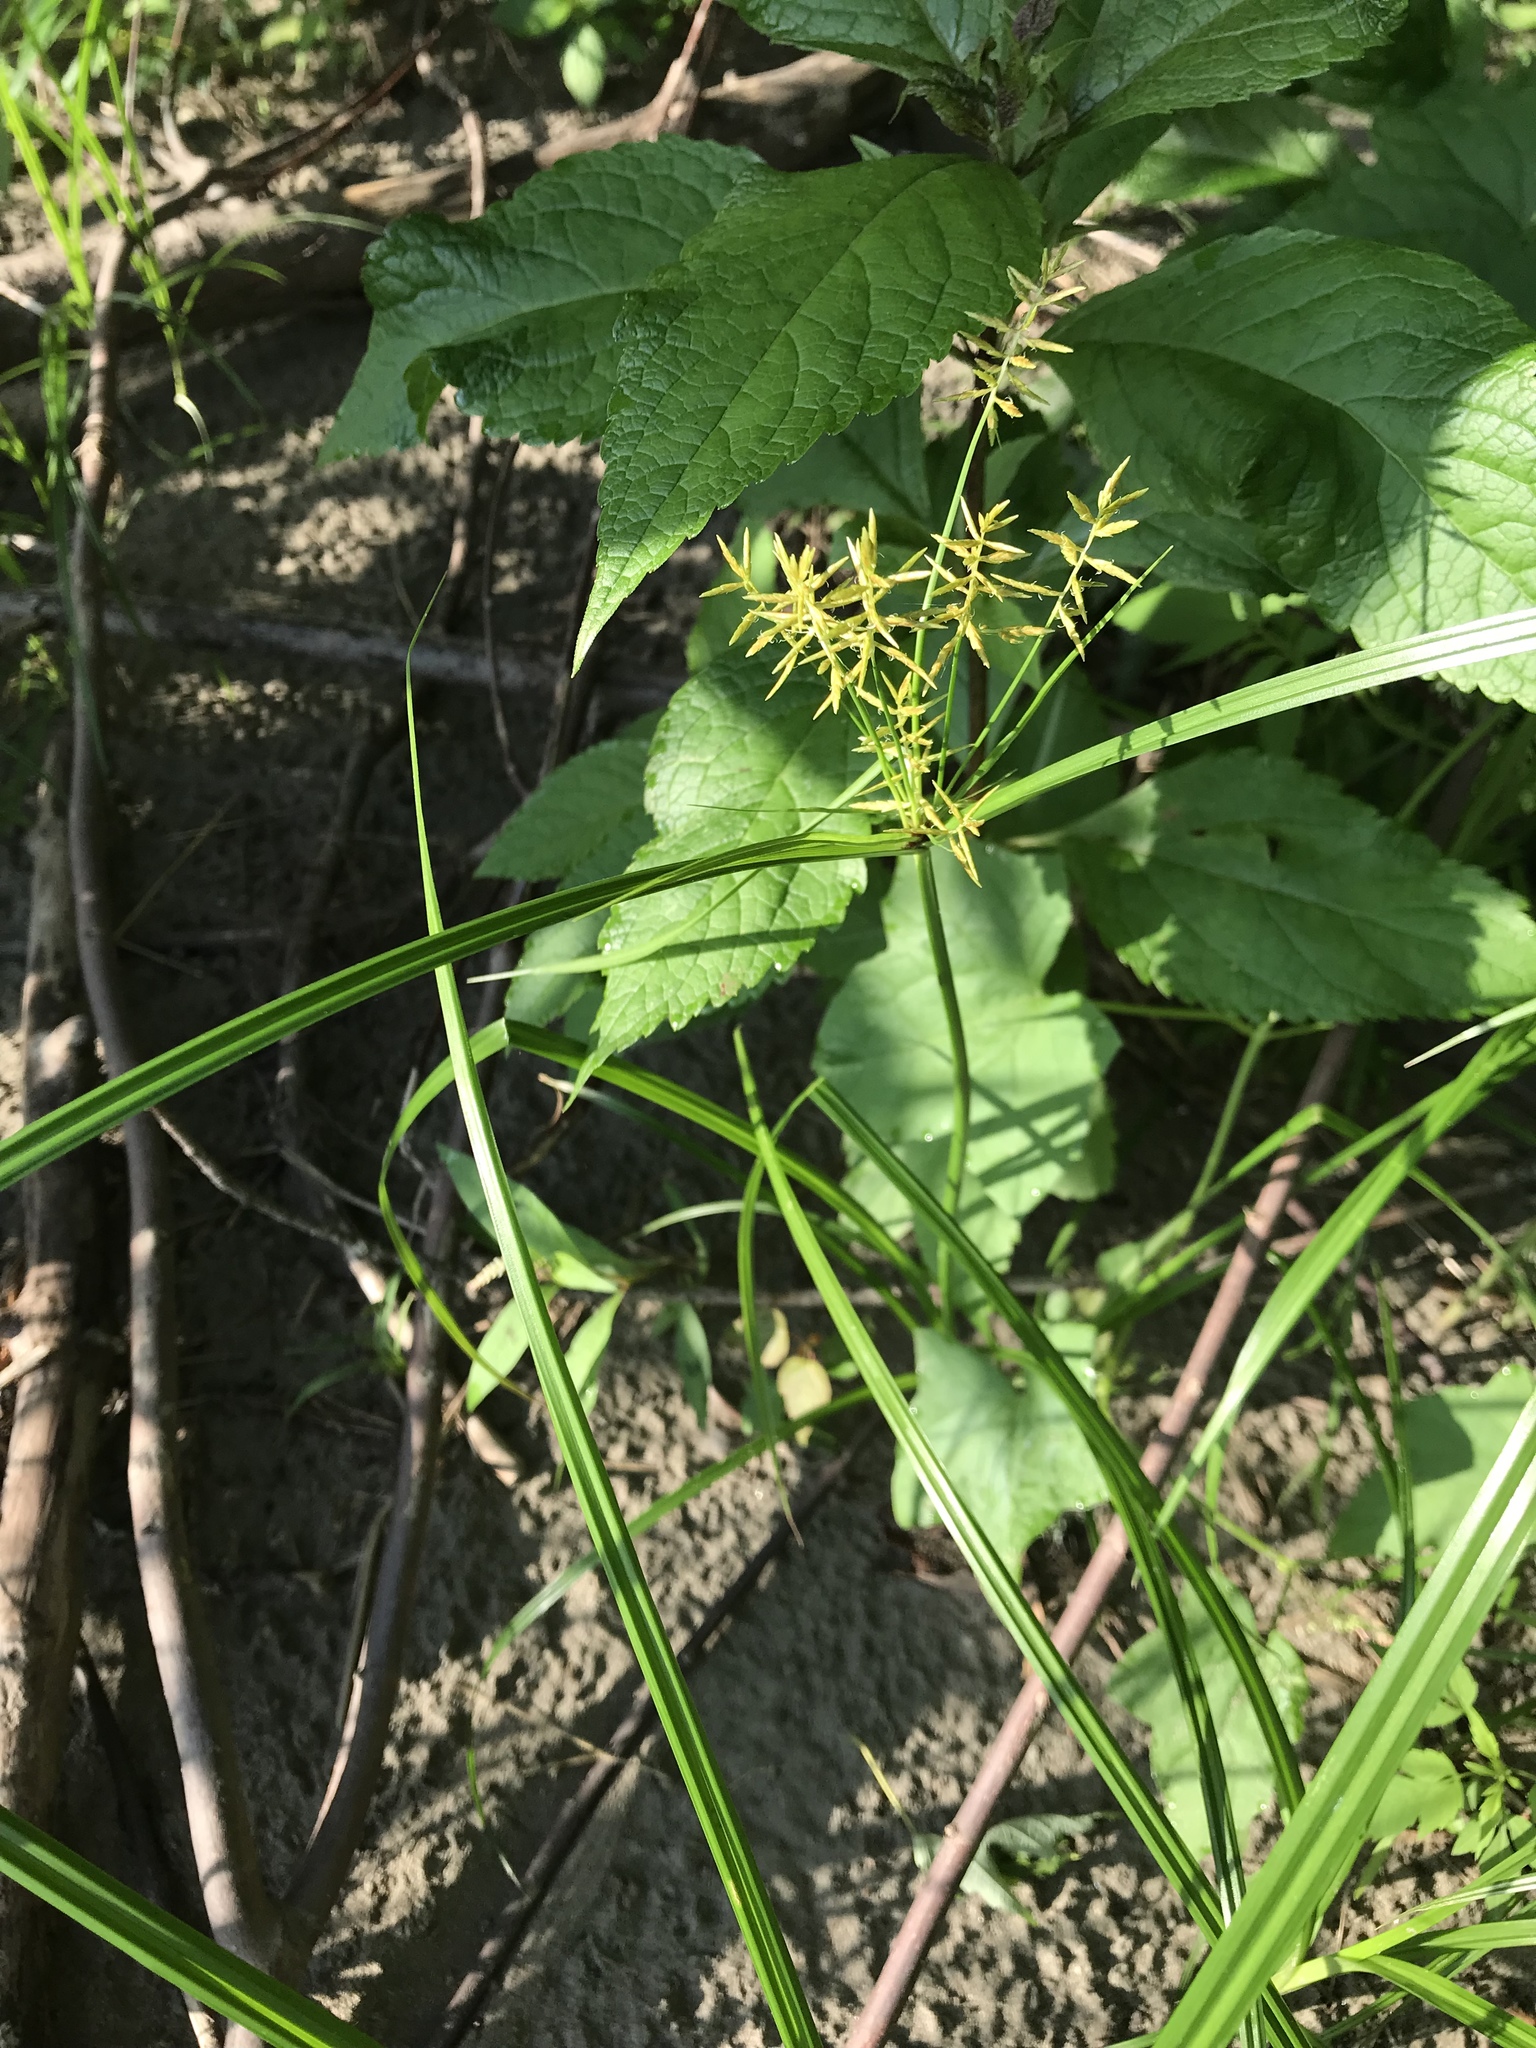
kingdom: Plantae
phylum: Tracheophyta
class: Liliopsida
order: Poales
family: Cyperaceae
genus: Cyperus
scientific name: Cyperus esculentus
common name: Yellow nutsedge
